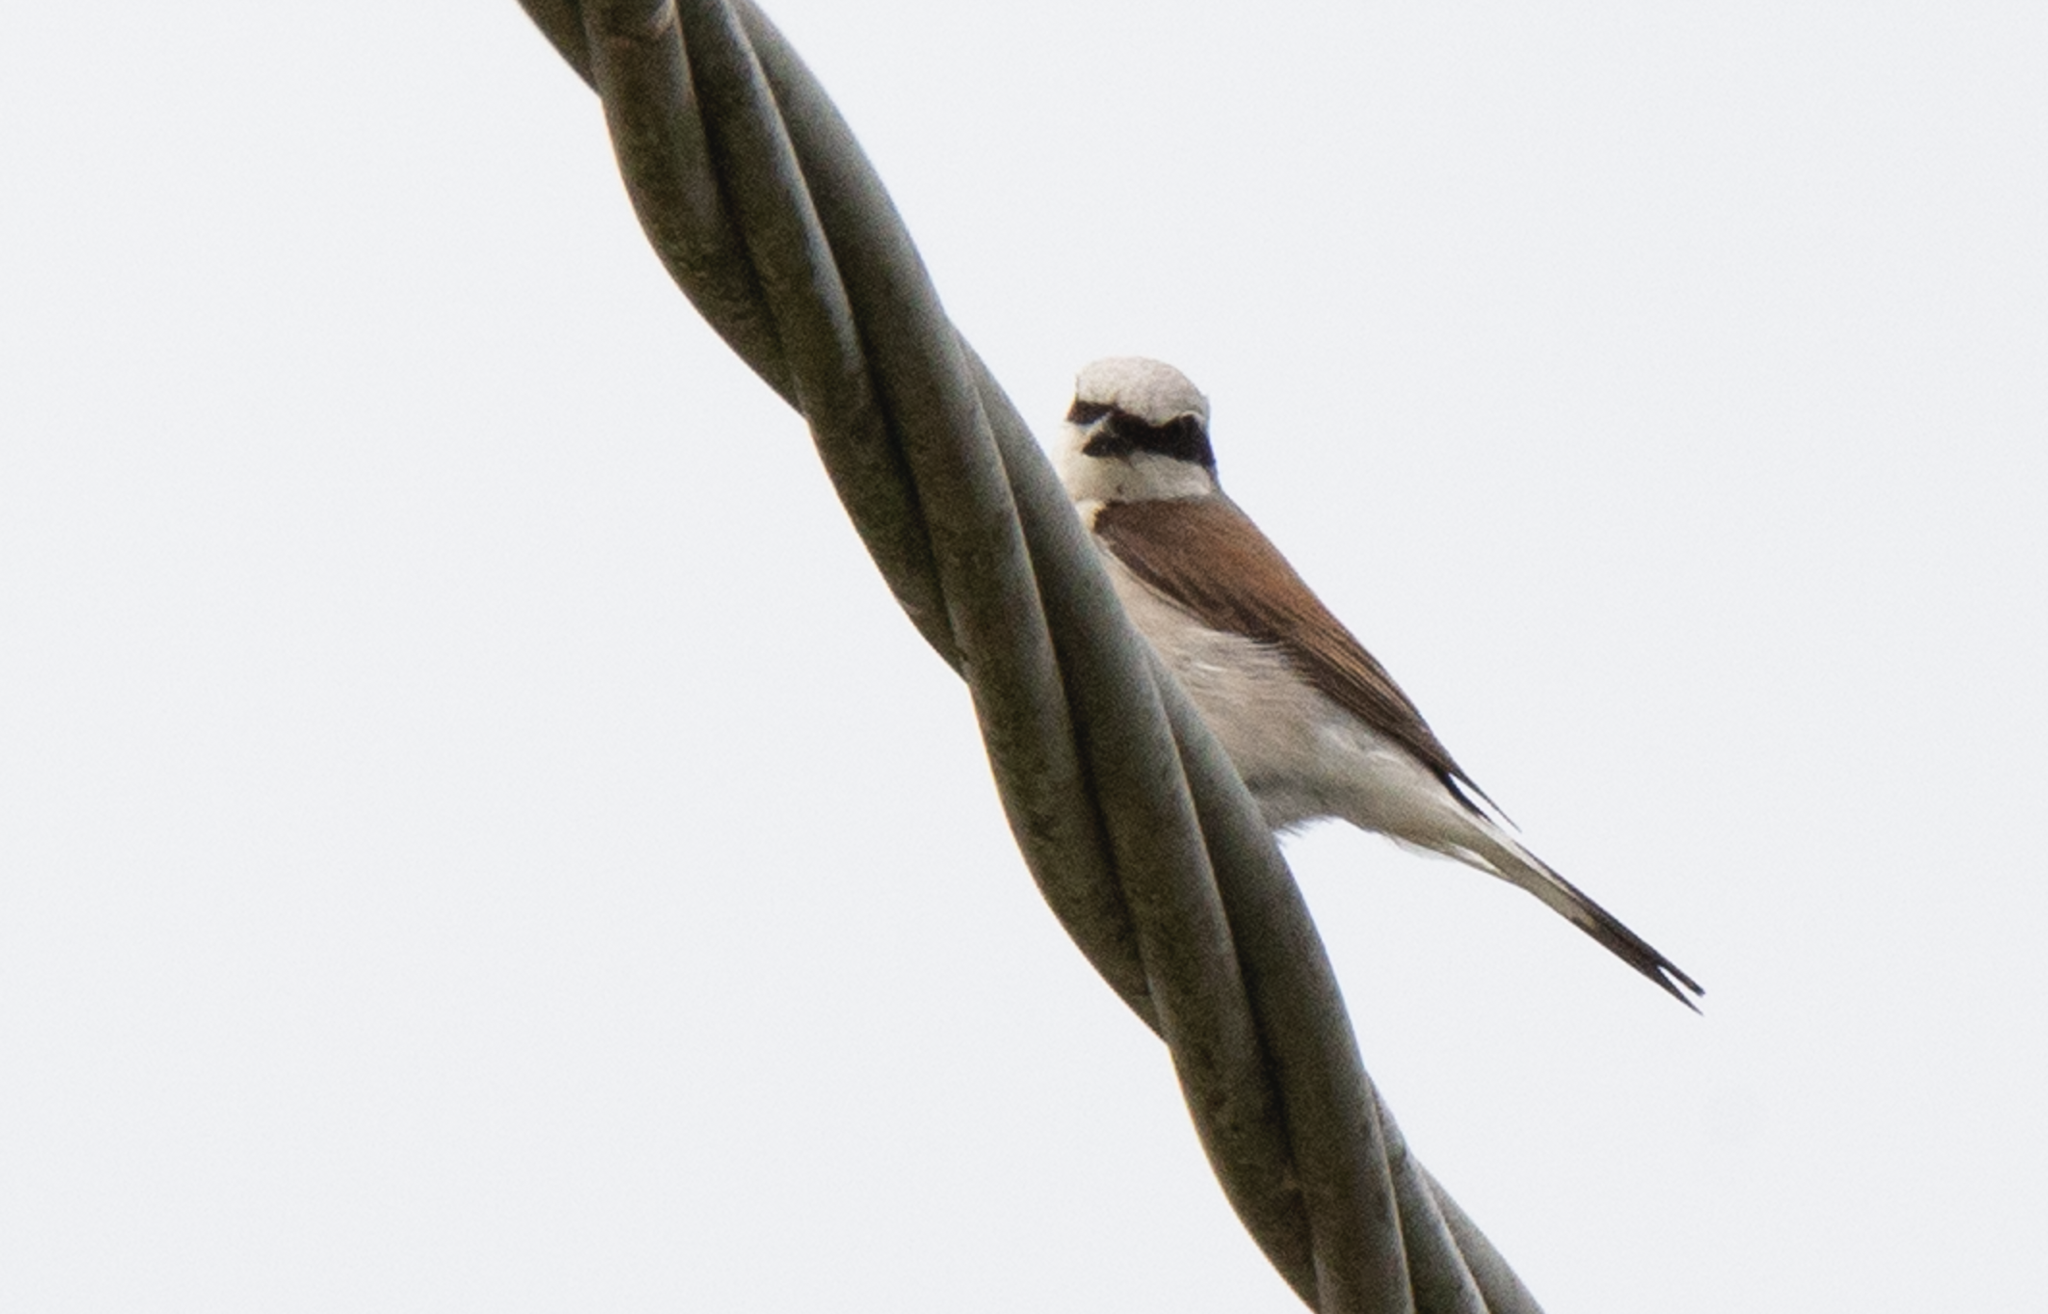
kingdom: Animalia
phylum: Chordata
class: Aves
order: Passeriformes
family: Laniidae
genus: Lanius
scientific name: Lanius collurio
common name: Red-backed shrike
